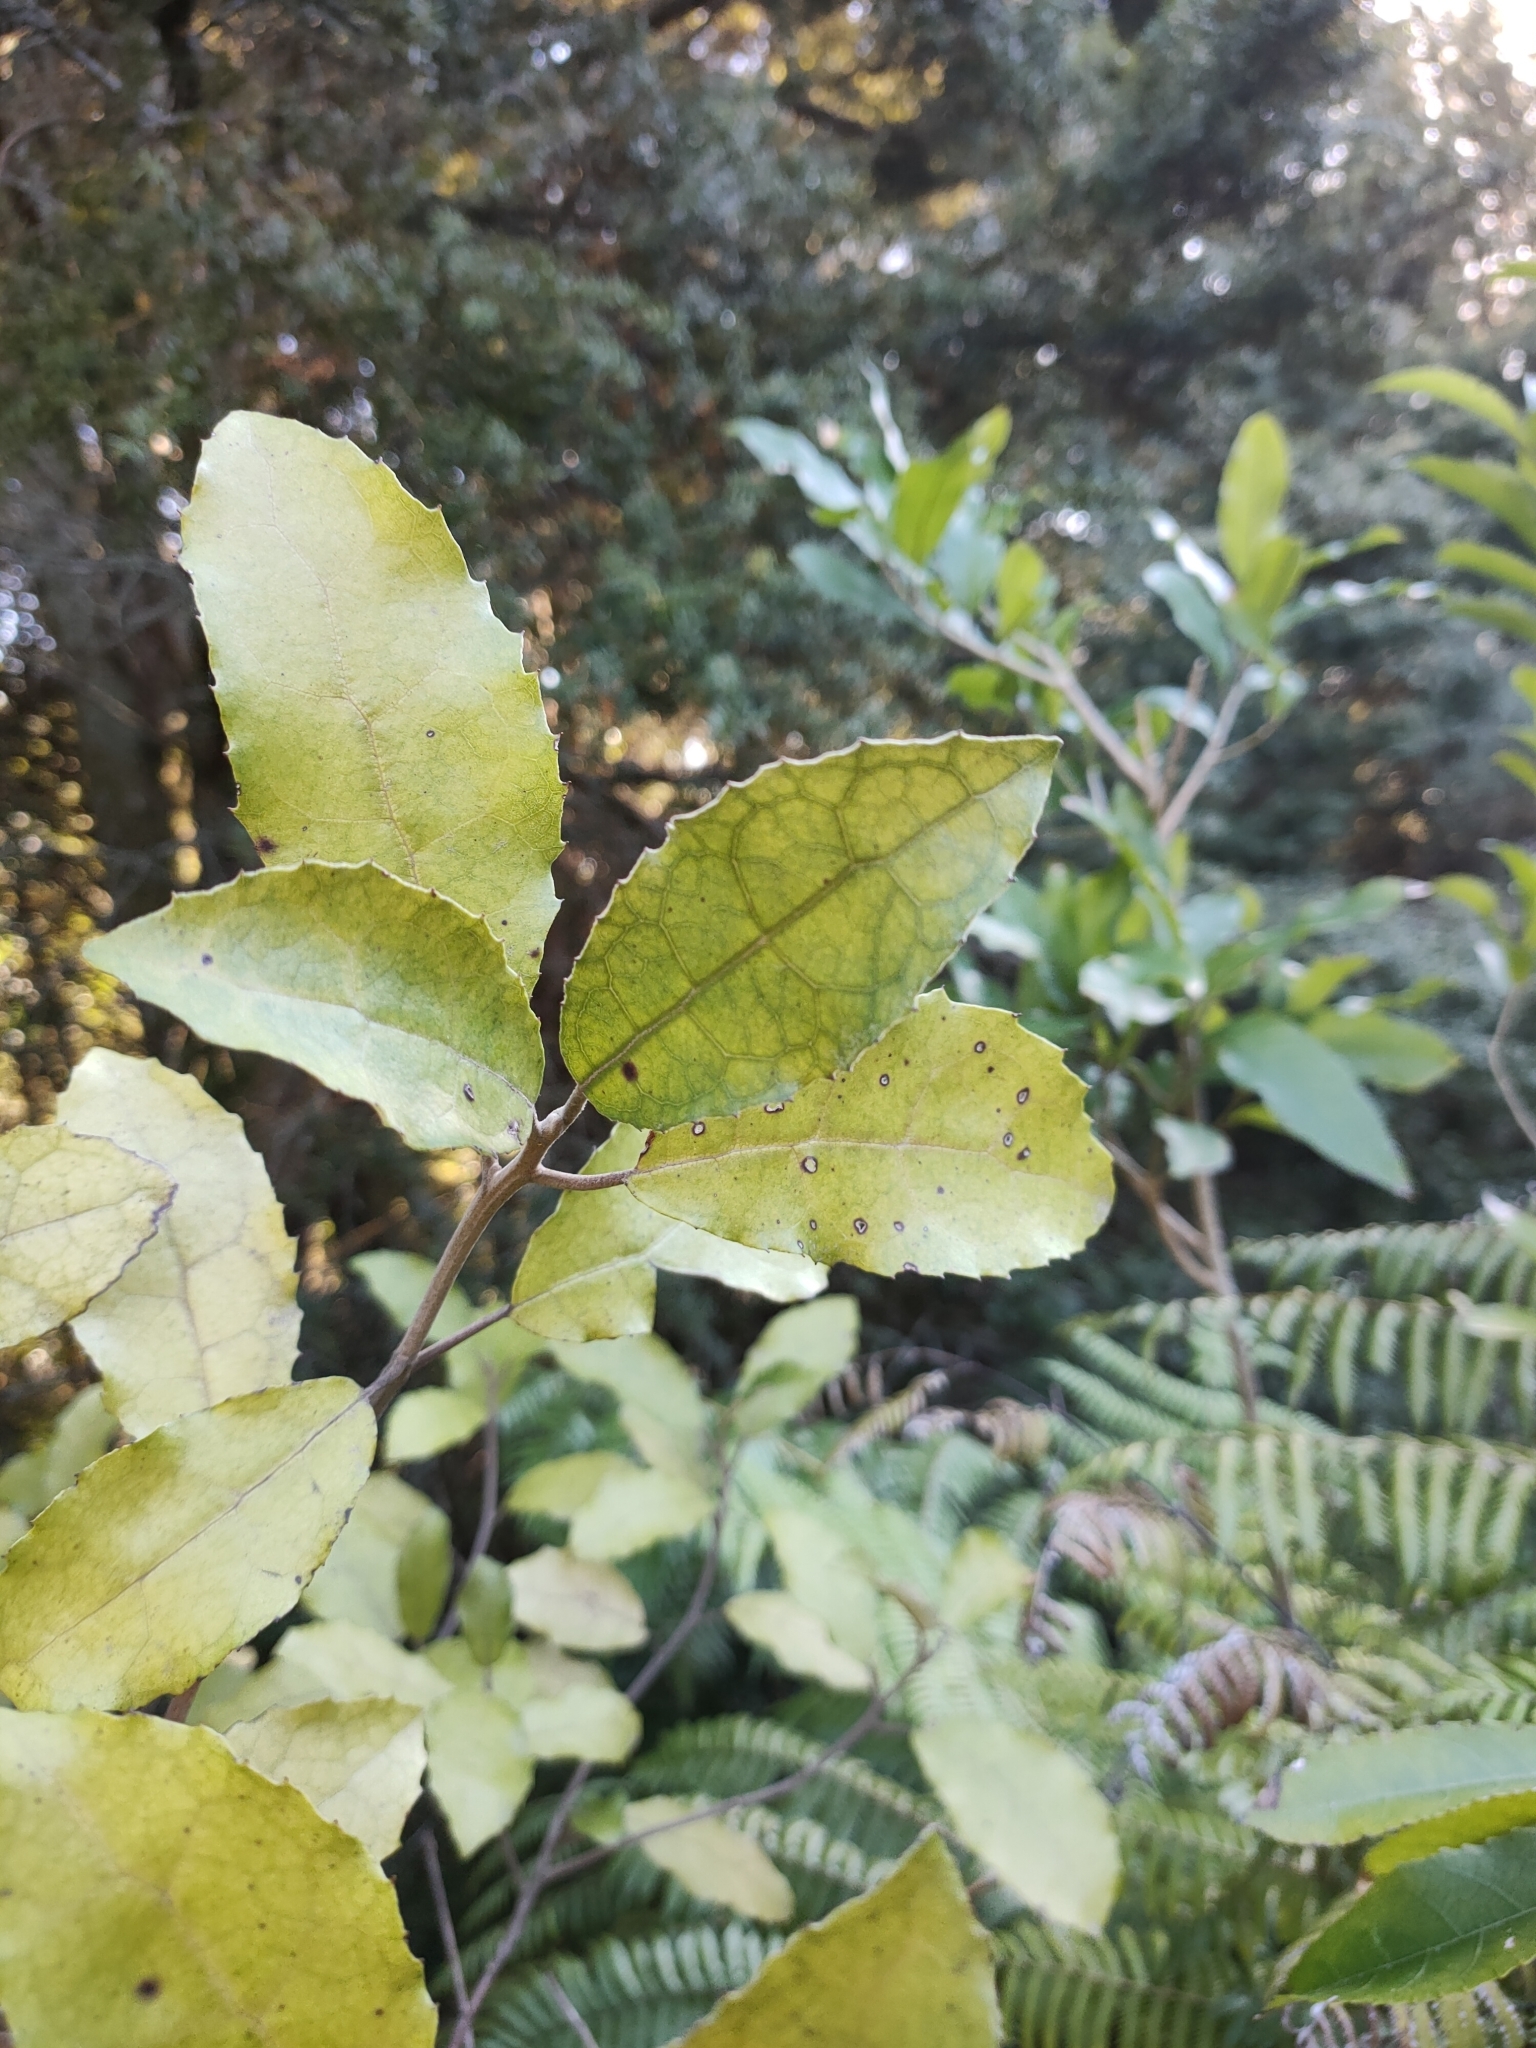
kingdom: Plantae
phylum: Tracheophyta
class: Magnoliopsida
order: Asterales
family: Asteraceae
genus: Olearia
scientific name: Olearia rani
